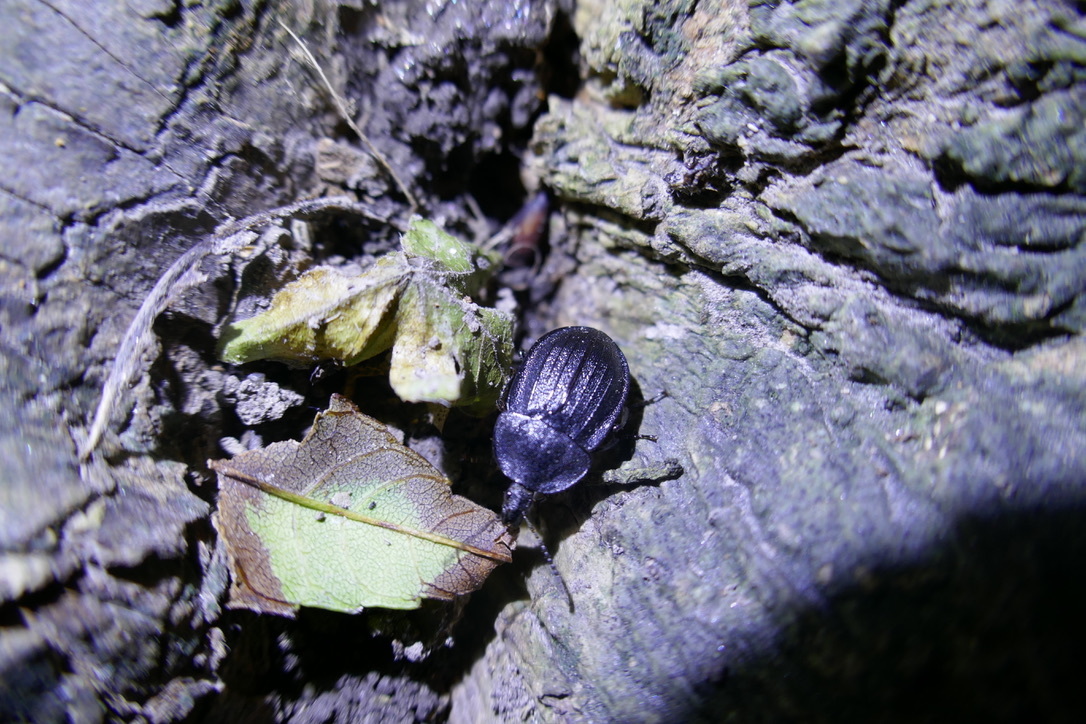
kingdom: Animalia
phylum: Arthropoda
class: Insecta
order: Coleoptera
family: Staphylinidae
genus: Silpha
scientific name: Silpha atrata
